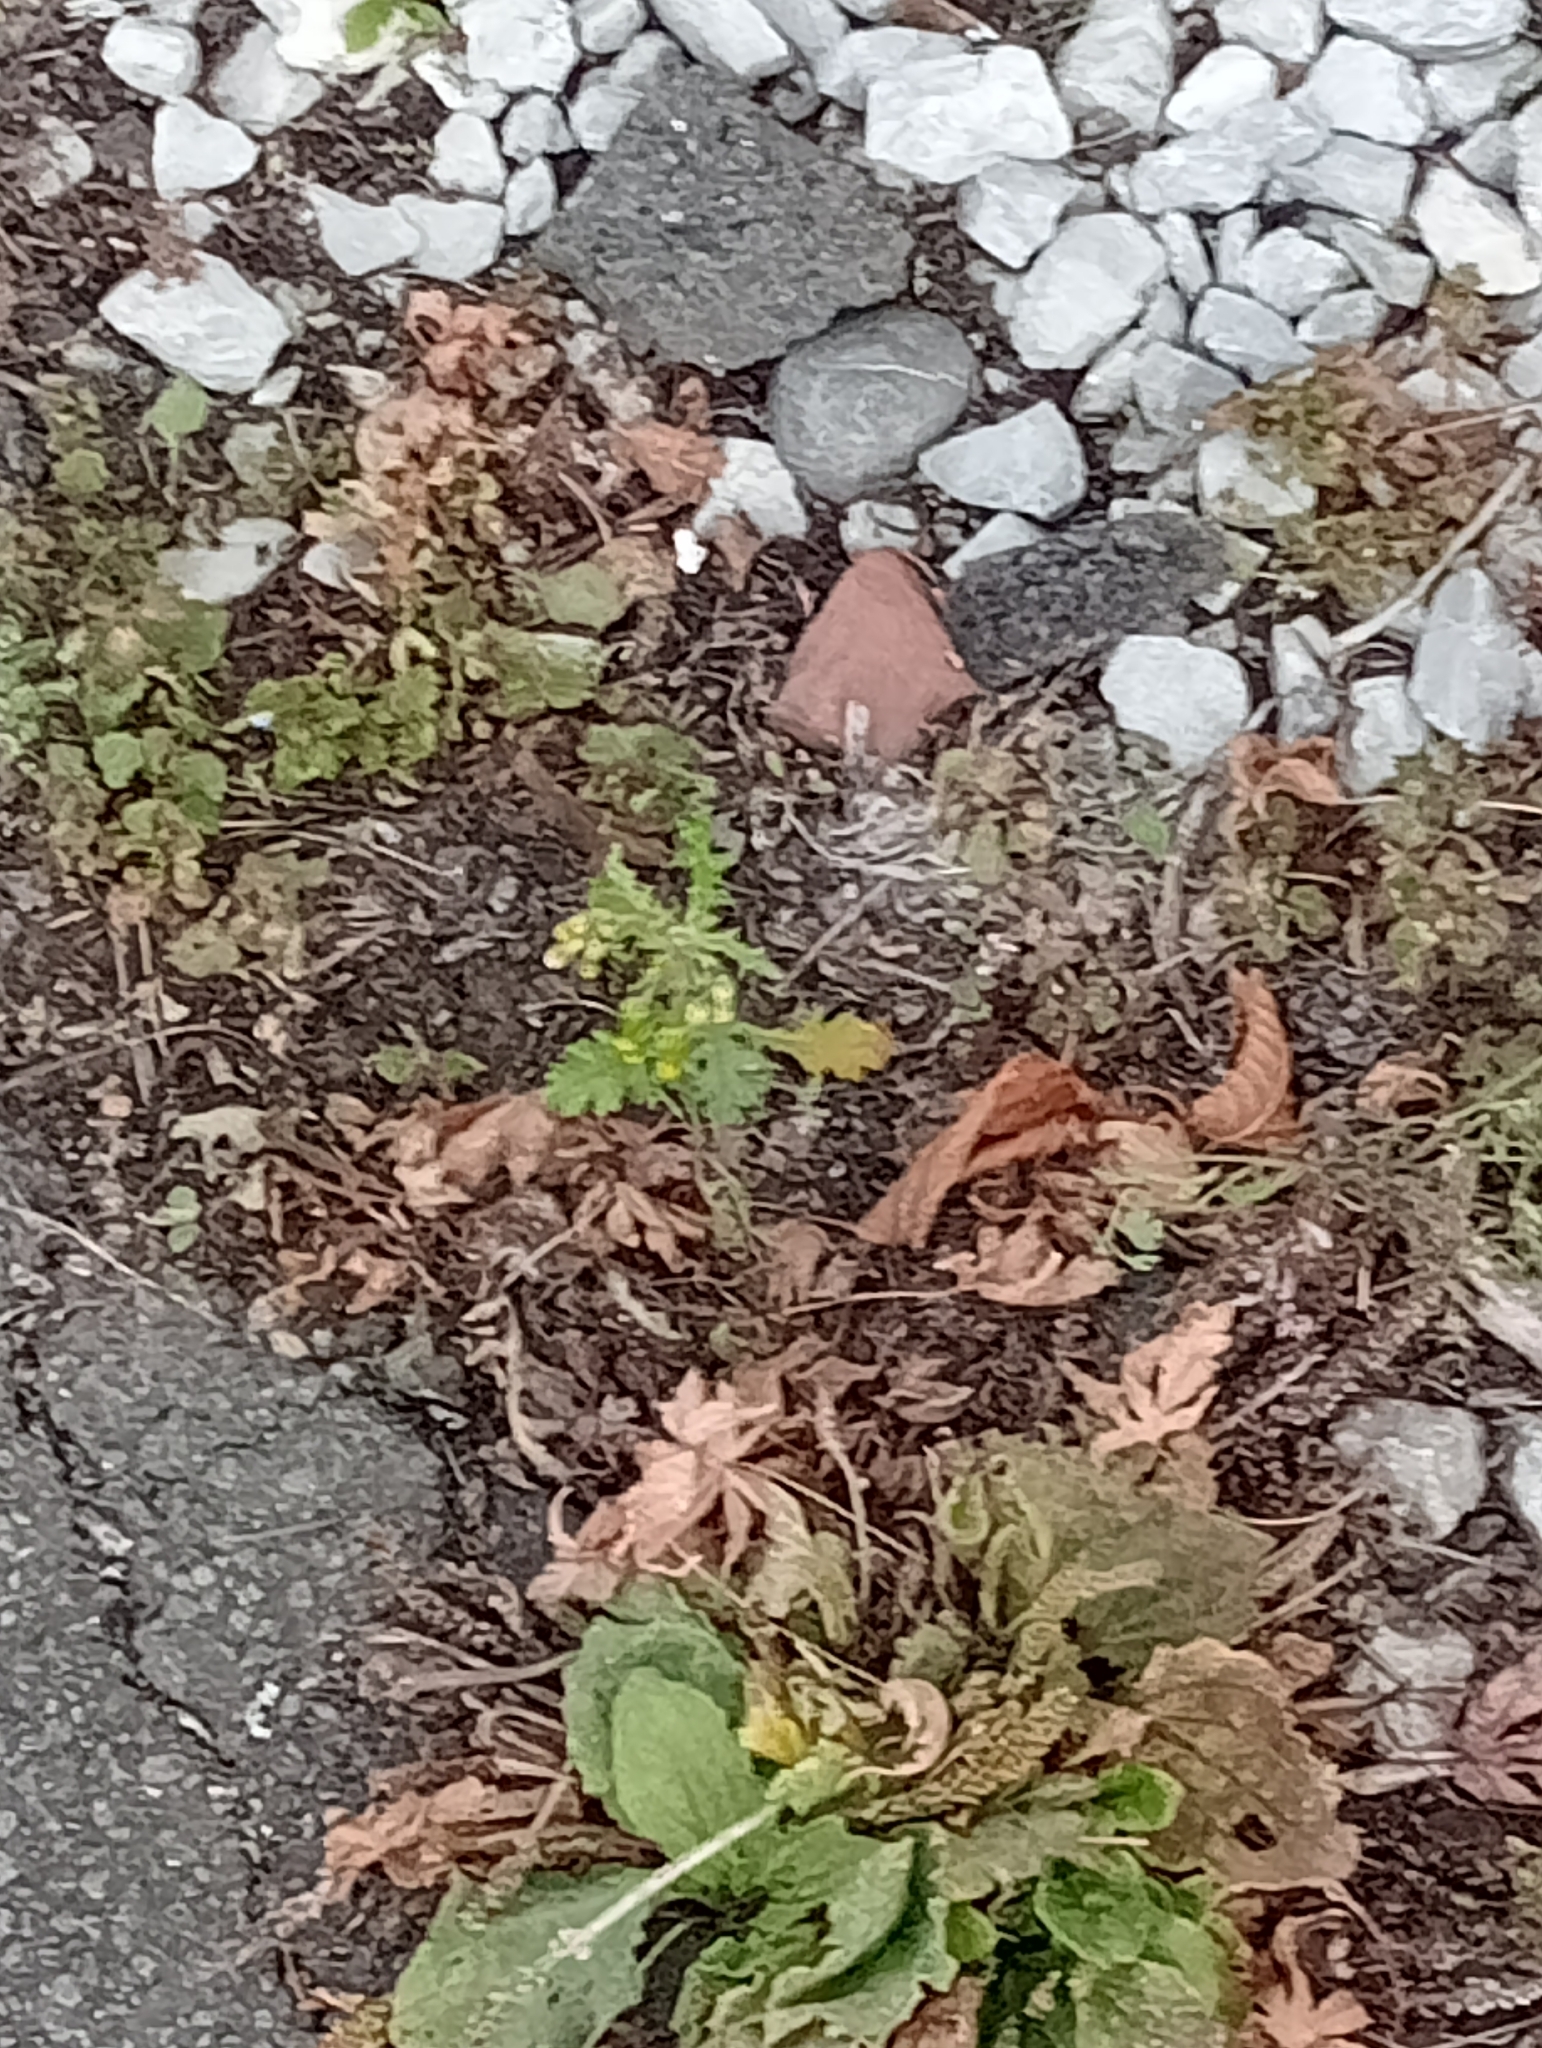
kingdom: Plantae
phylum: Tracheophyta
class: Magnoliopsida
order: Asterales
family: Asteraceae
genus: Senecio
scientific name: Senecio vulgaris
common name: Old-man-in-the-spring
